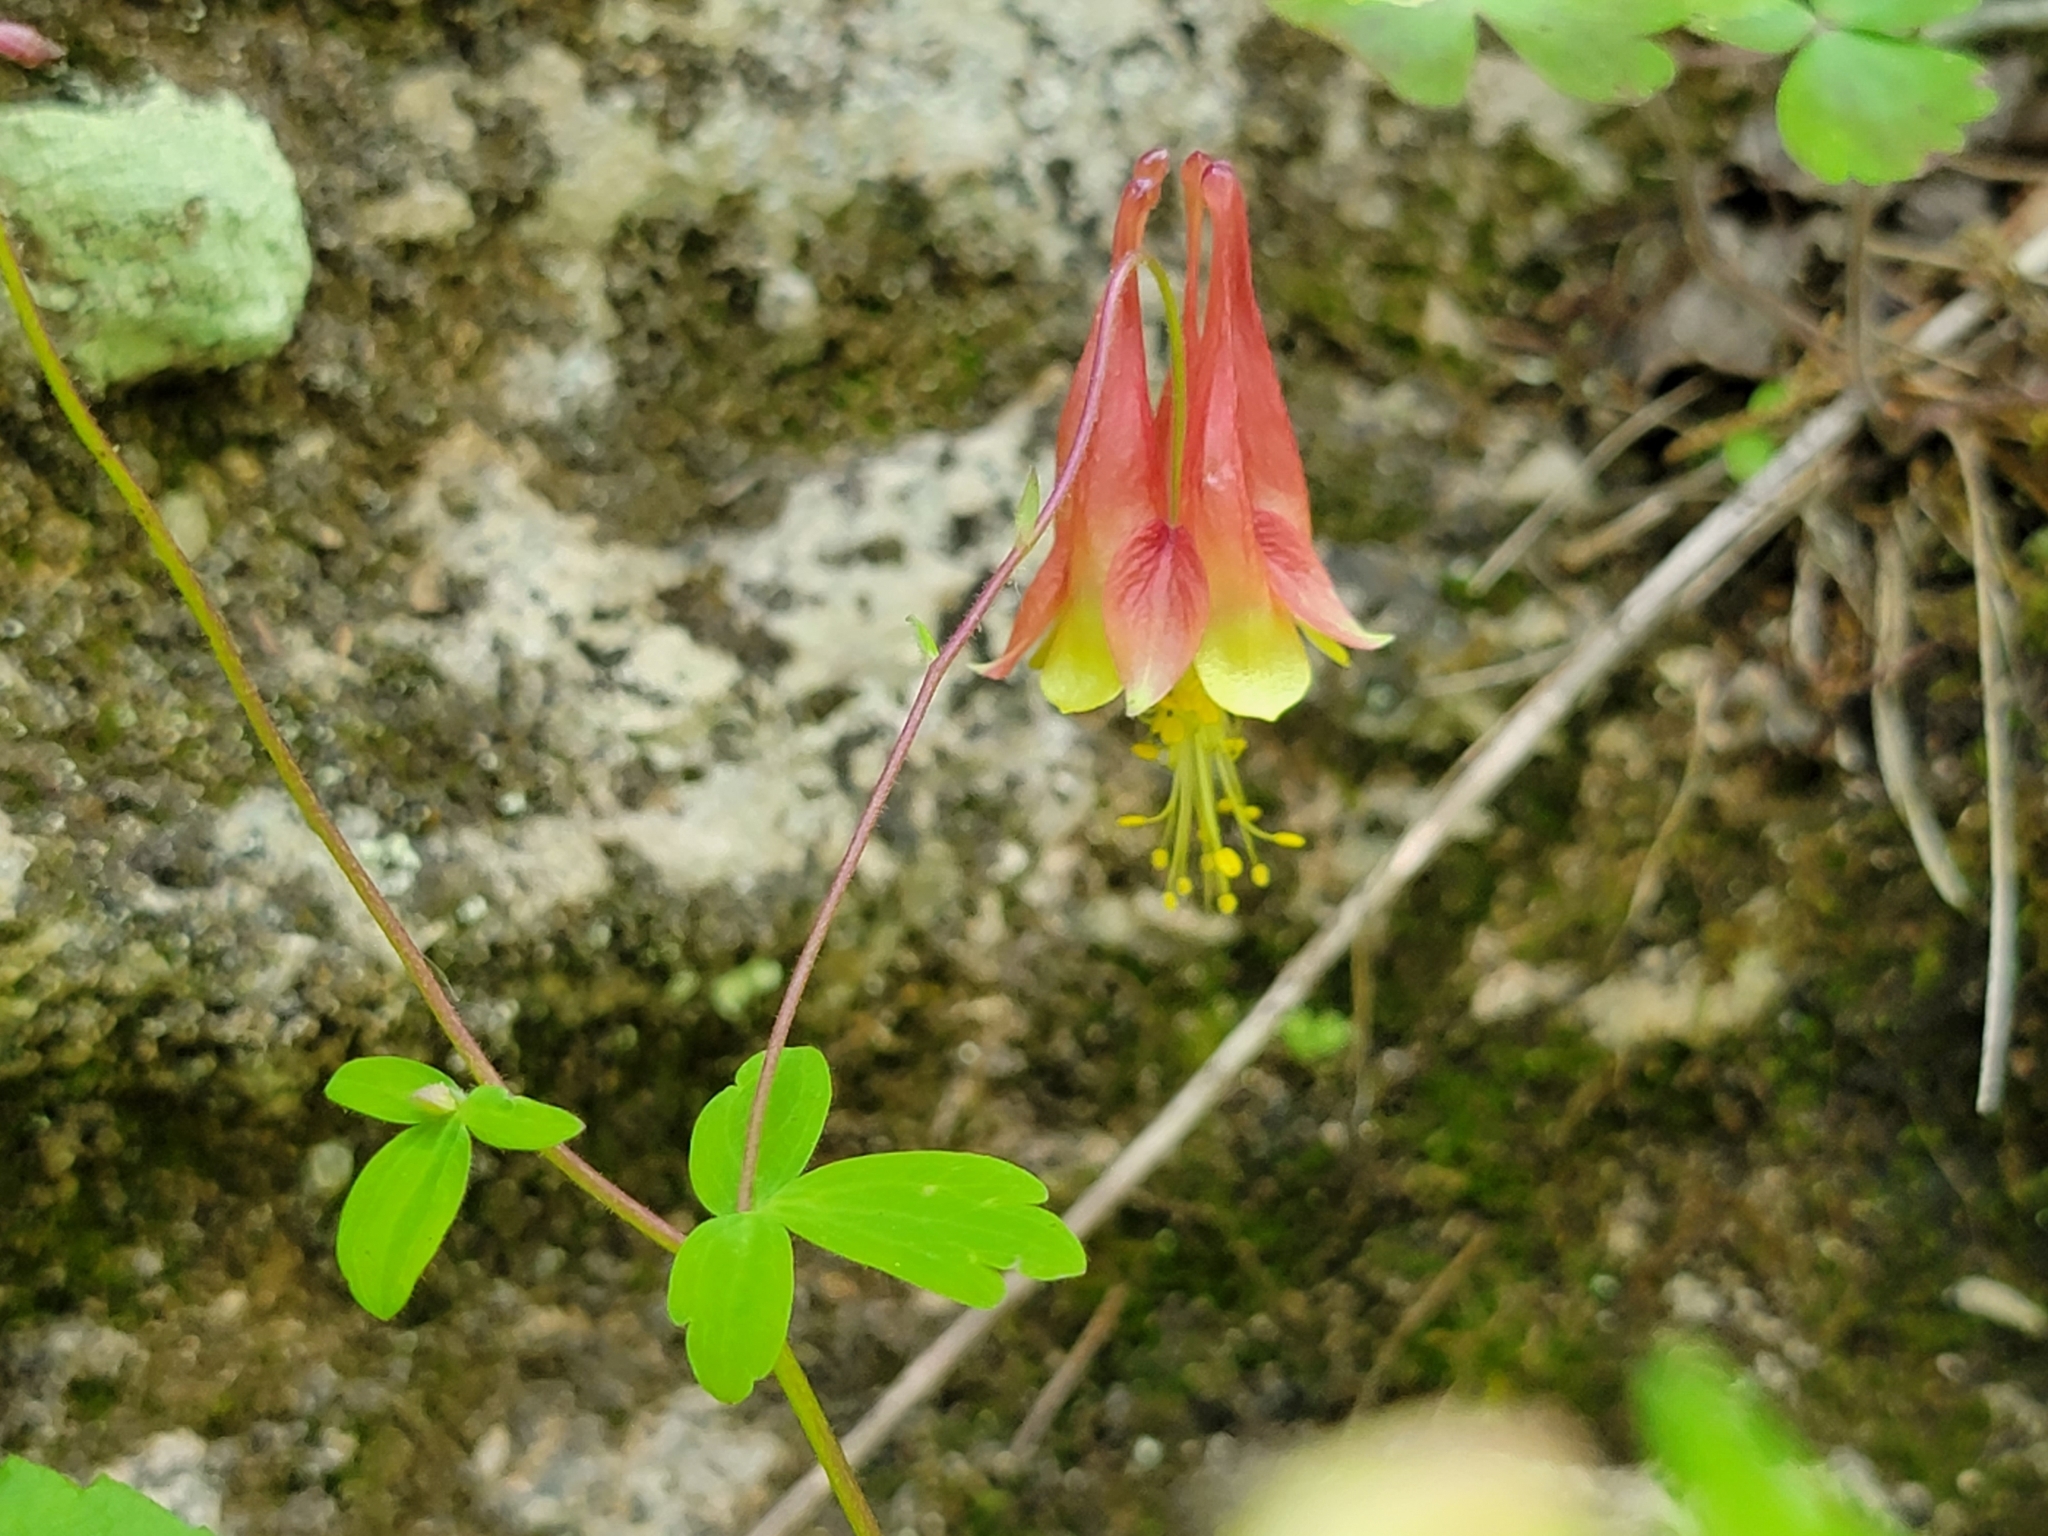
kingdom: Plantae
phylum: Tracheophyta
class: Magnoliopsida
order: Ranunculales
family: Ranunculaceae
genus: Aquilegia
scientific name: Aquilegia canadensis
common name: American columbine
